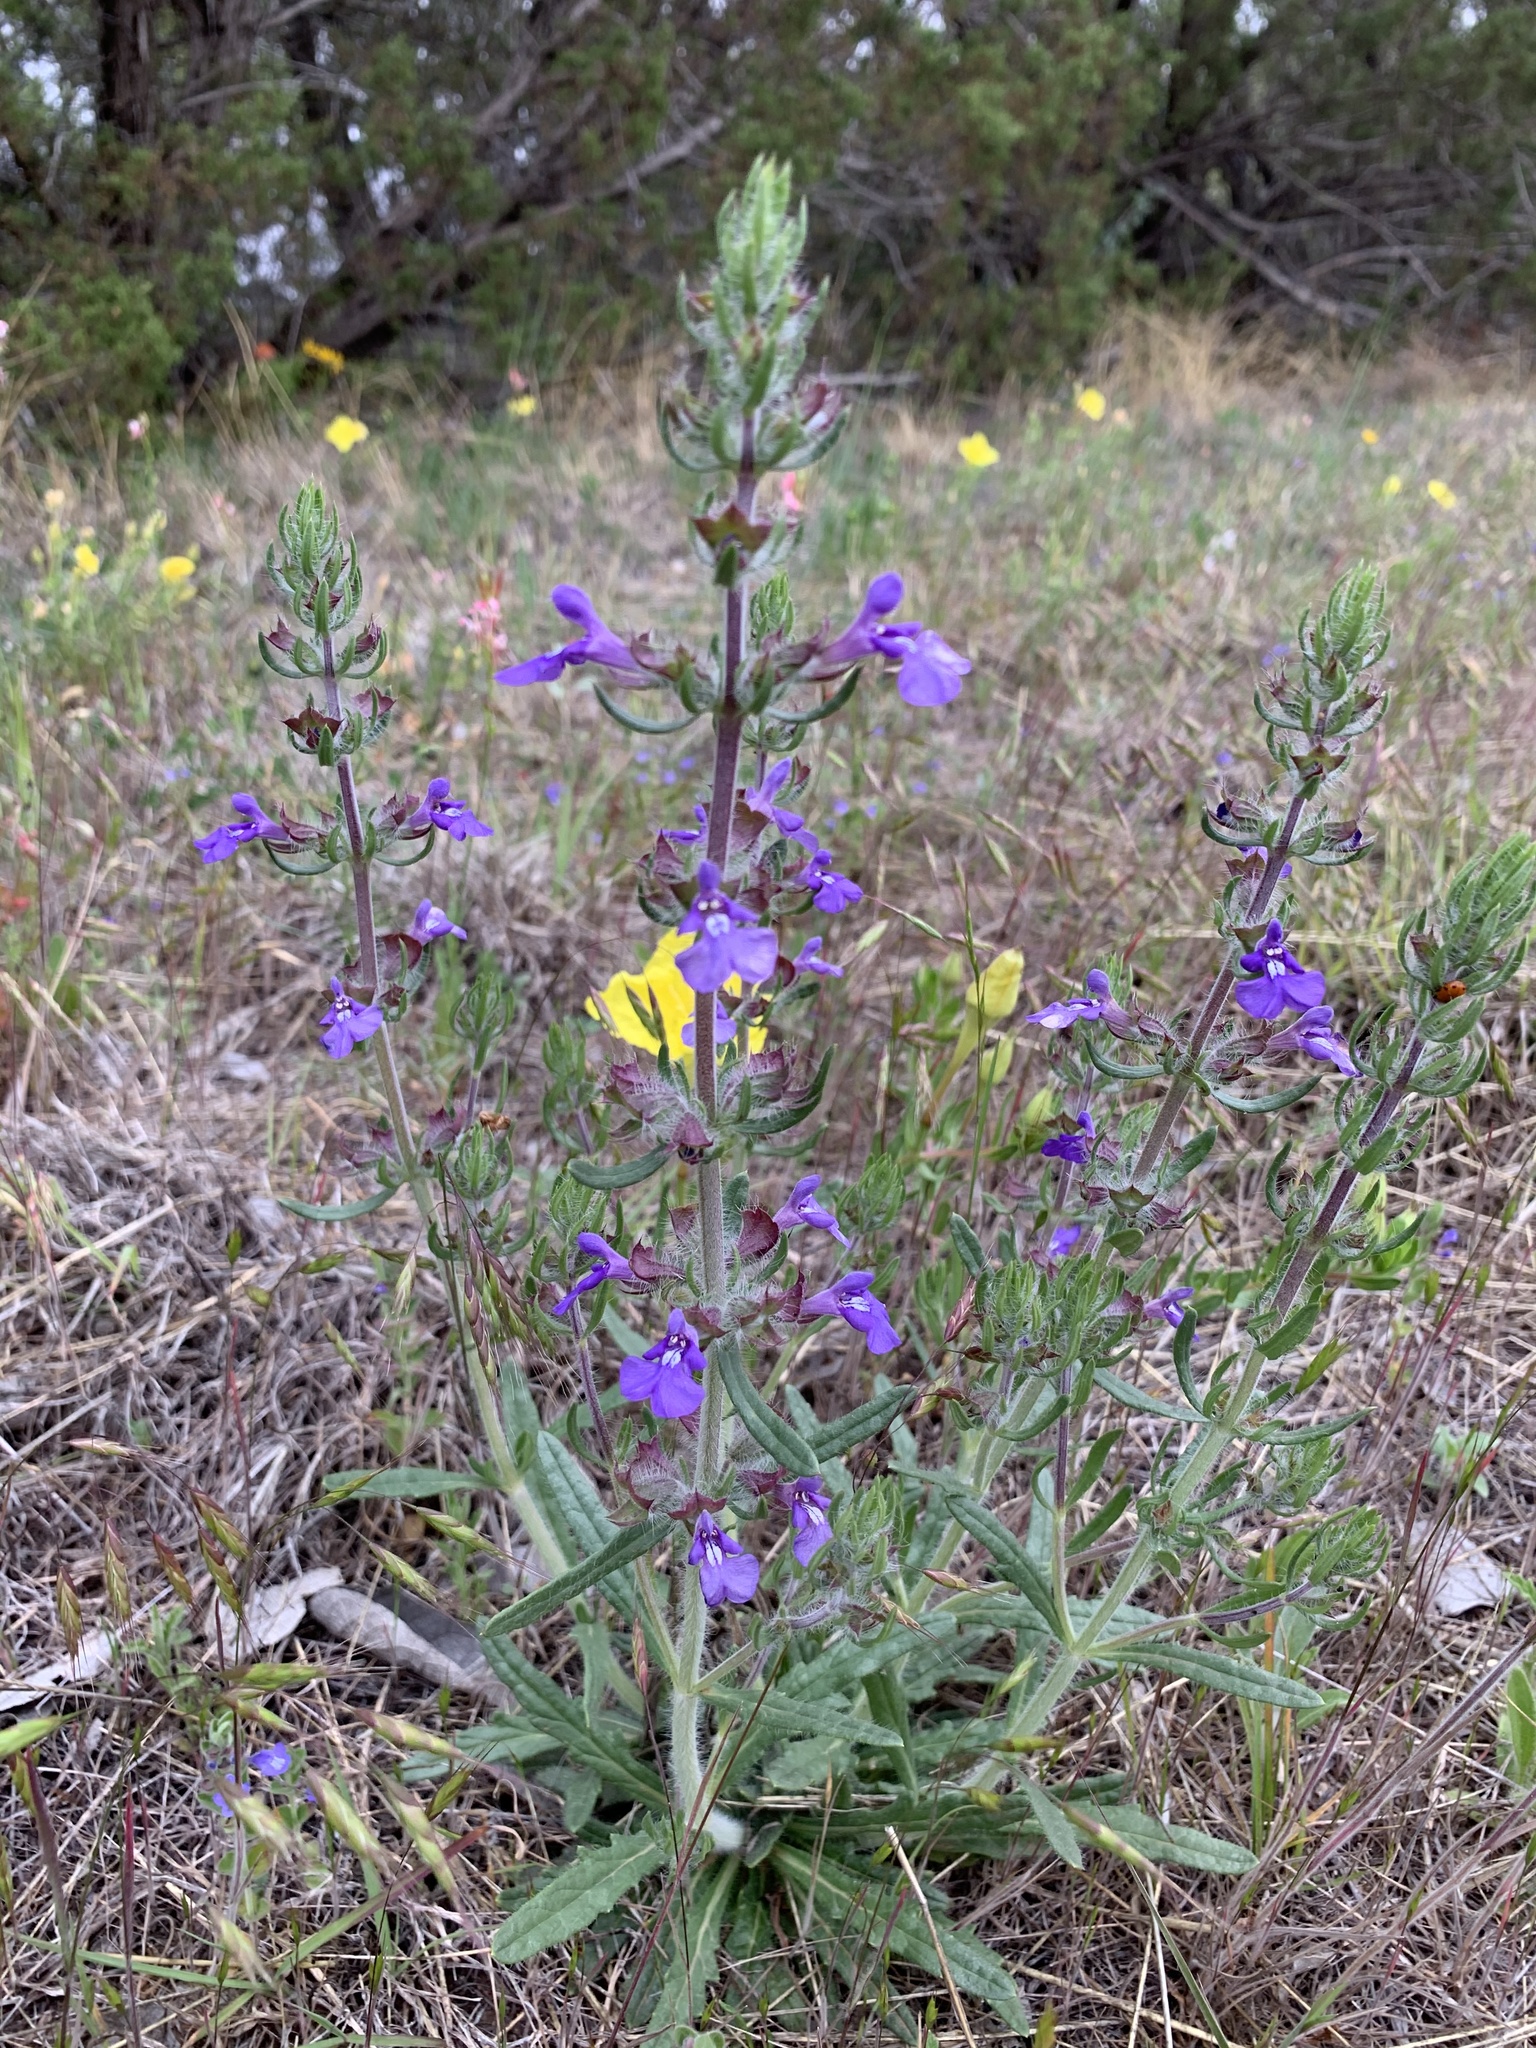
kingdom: Plantae
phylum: Tracheophyta
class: Magnoliopsida
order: Lamiales
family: Lamiaceae
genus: Salvia
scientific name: Salvia texana
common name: Texas sage
